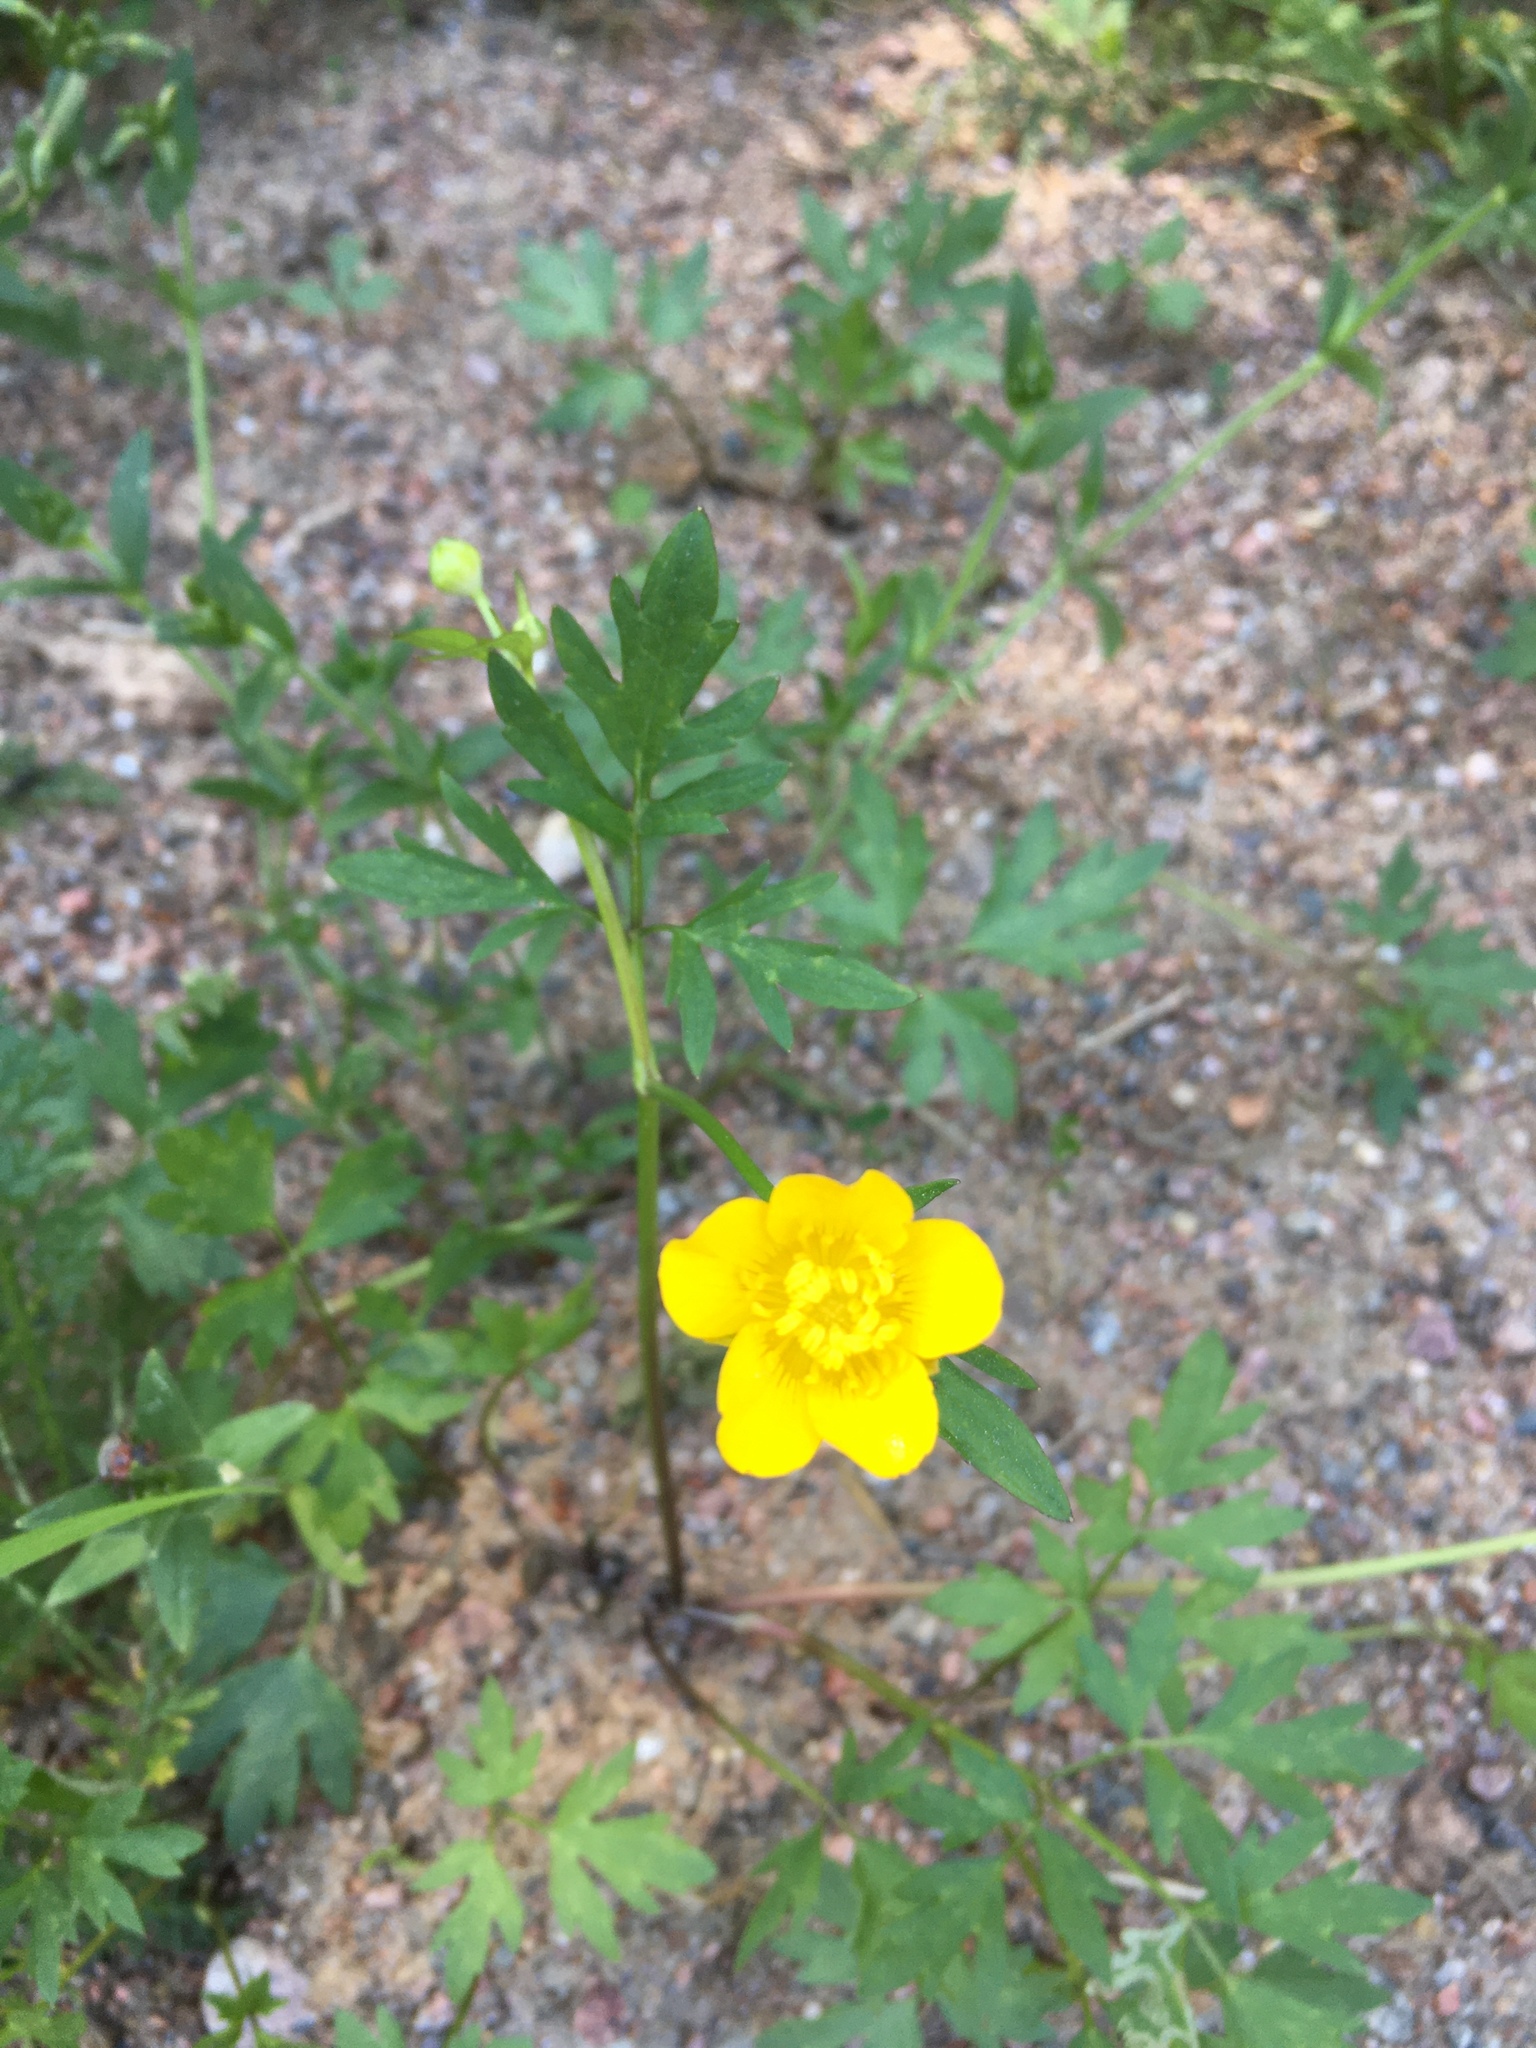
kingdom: Plantae
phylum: Tracheophyta
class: Magnoliopsida
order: Ranunculales
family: Ranunculaceae
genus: Ranunculus
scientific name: Ranunculus repens
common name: Creeping buttercup
